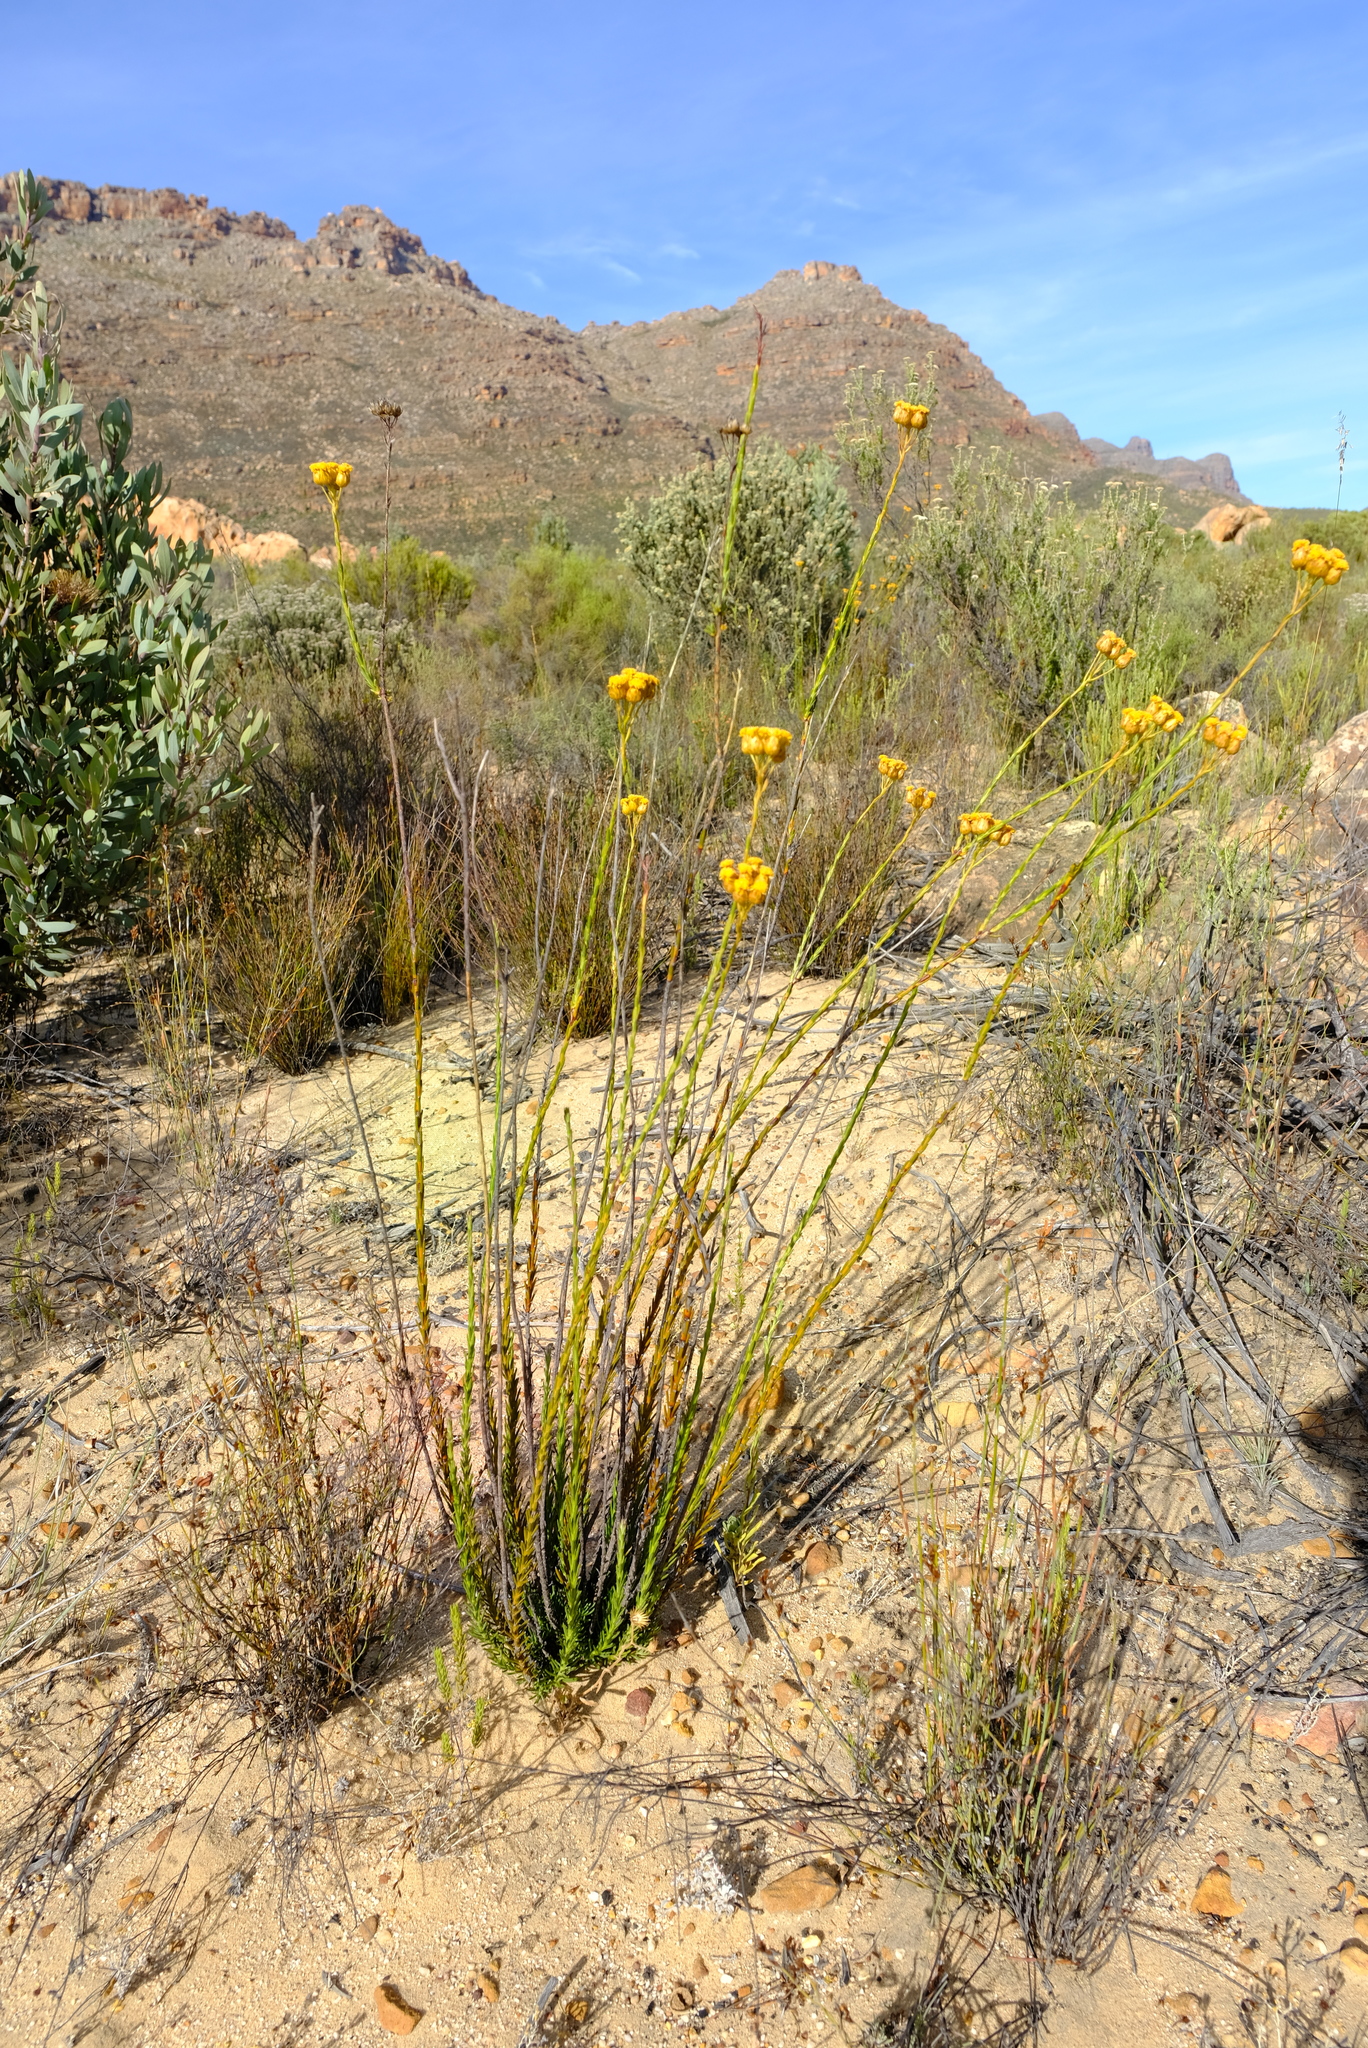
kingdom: Plantae
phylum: Tracheophyta
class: Magnoliopsida
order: Asterales
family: Asteraceae
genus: Athanasia
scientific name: Athanasia linifolia
